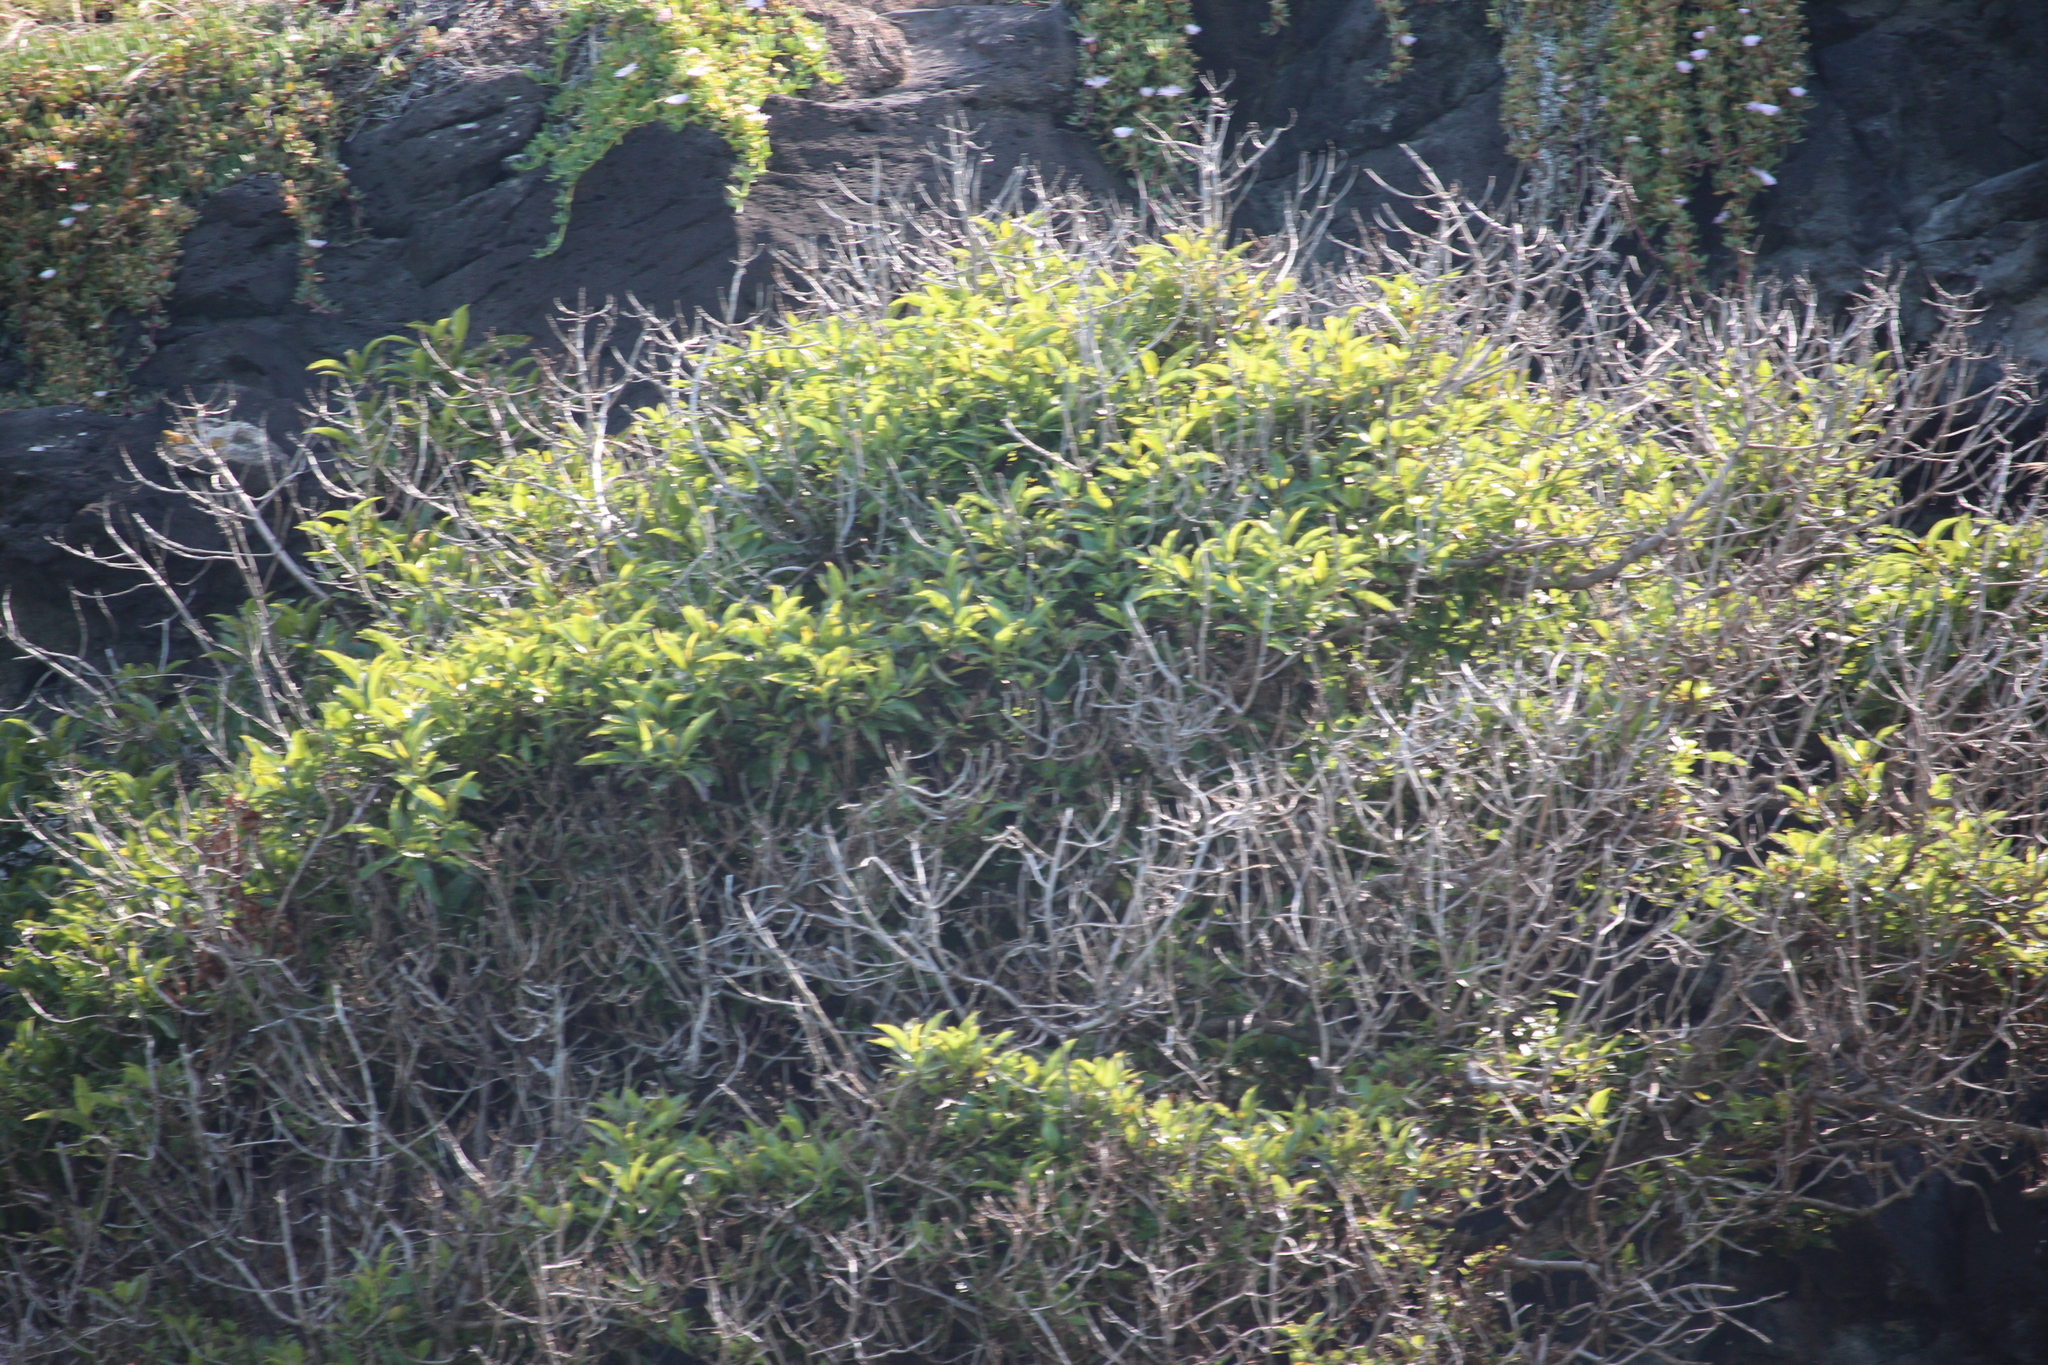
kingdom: Plantae
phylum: Tracheophyta
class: Magnoliopsida
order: Malpighiales
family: Violaceae
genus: Melicytus
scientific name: Melicytus ramiflorus
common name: Mahoe
